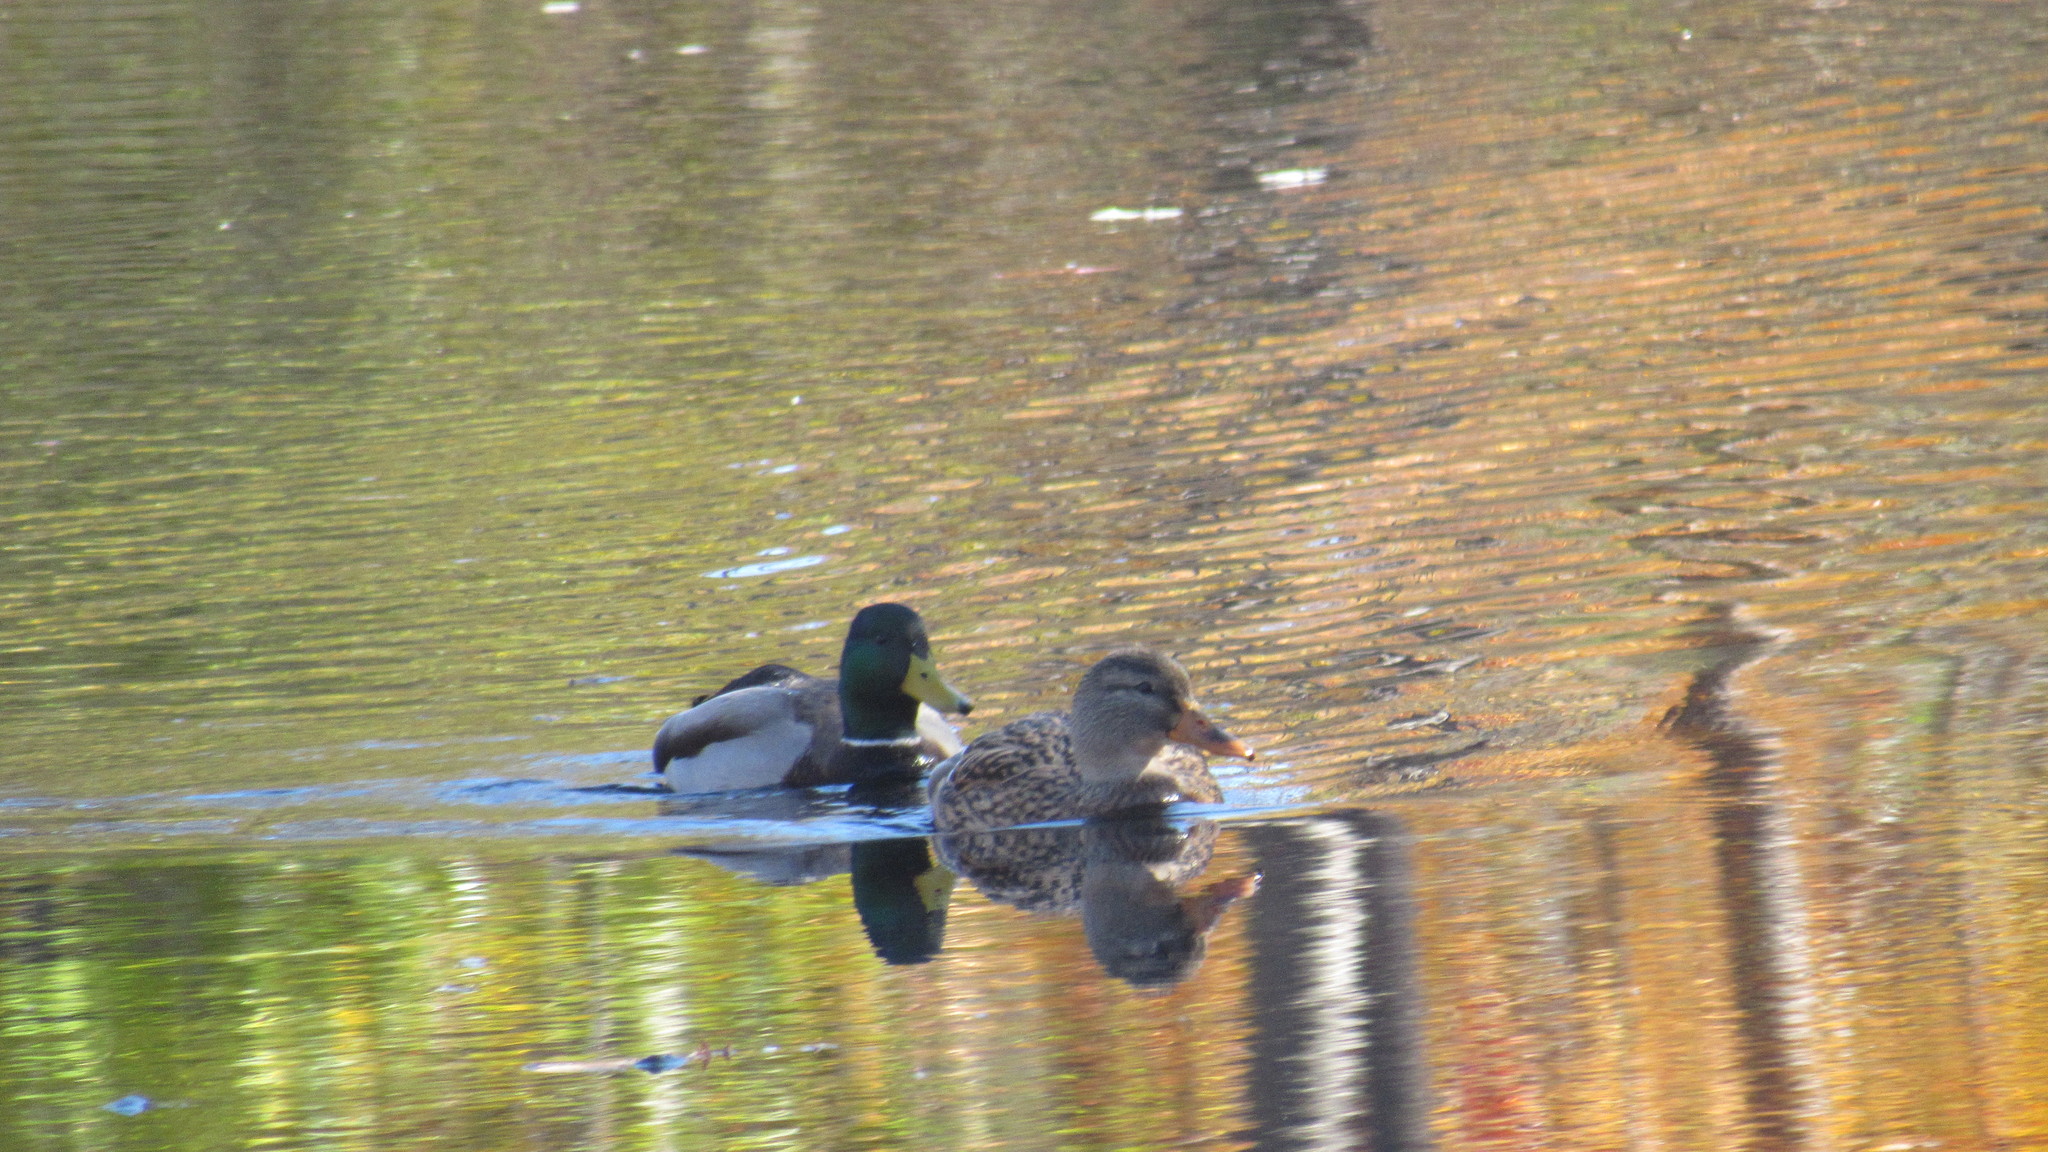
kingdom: Animalia
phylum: Chordata
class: Aves
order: Anseriformes
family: Anatidae
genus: Anas
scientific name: Anas platyrhynchos
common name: Mallard
